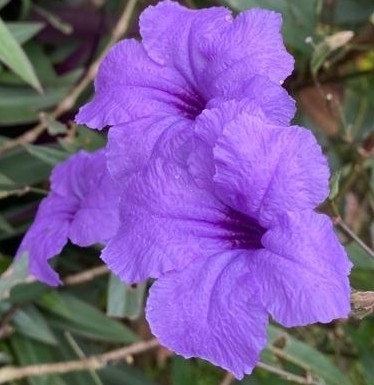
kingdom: Plantae
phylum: Tracheophyta
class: Magnoliopsida
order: Lamiales
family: Acanthaceae
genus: Ruellia
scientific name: Ruellia simplex
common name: Softseed wild petunia
